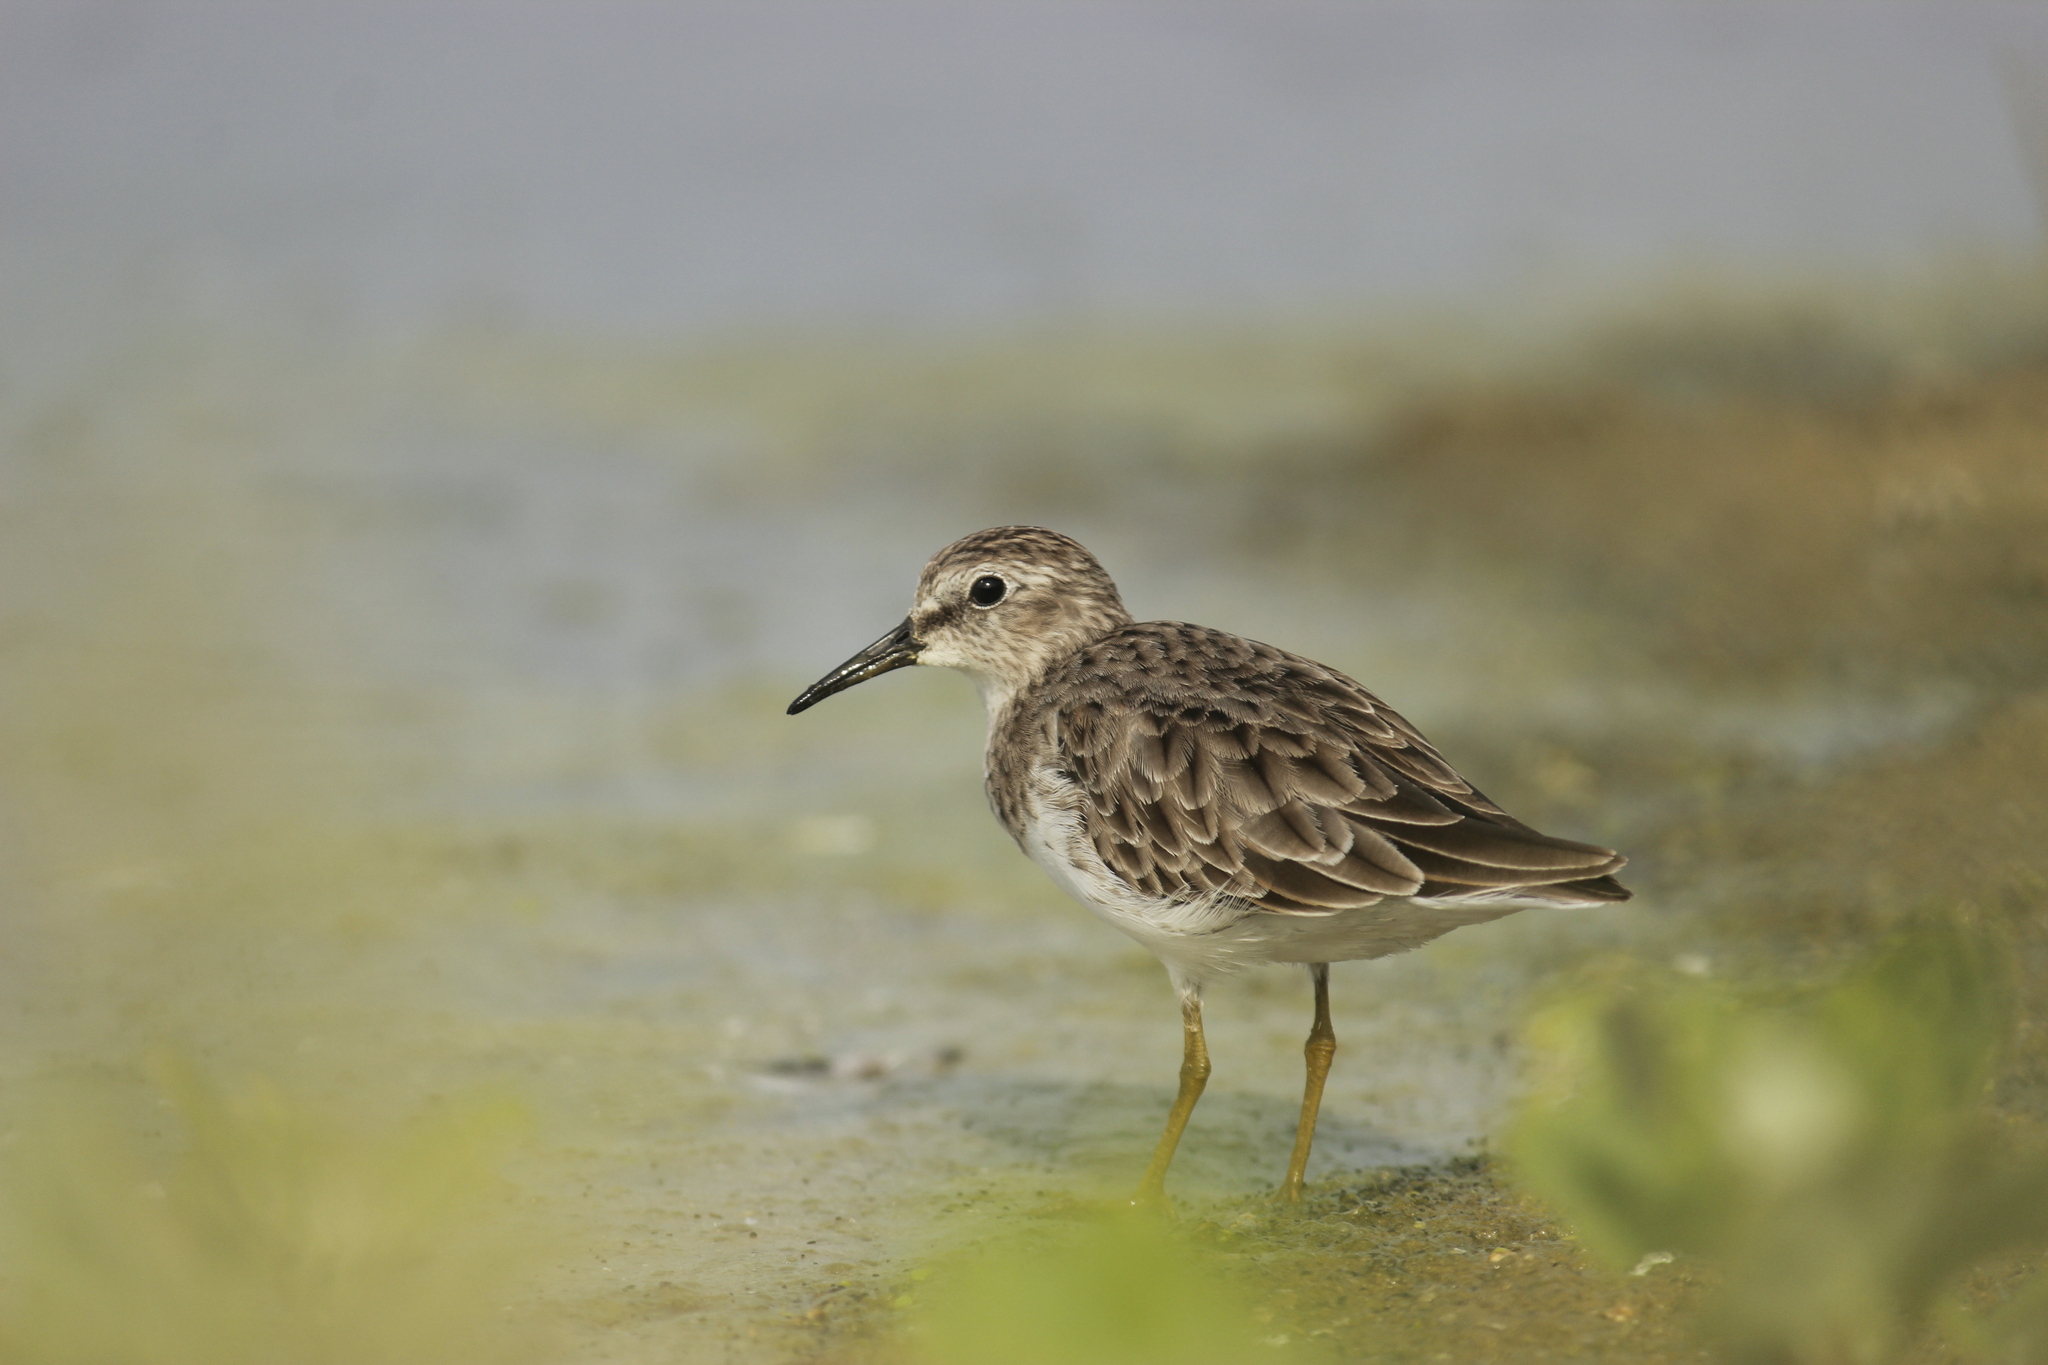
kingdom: Animalia
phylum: Chordata
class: Aves
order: Charadriiformes
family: Scolopacidae
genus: Calidris
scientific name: Calidris minutilla
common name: Least sandpiper
